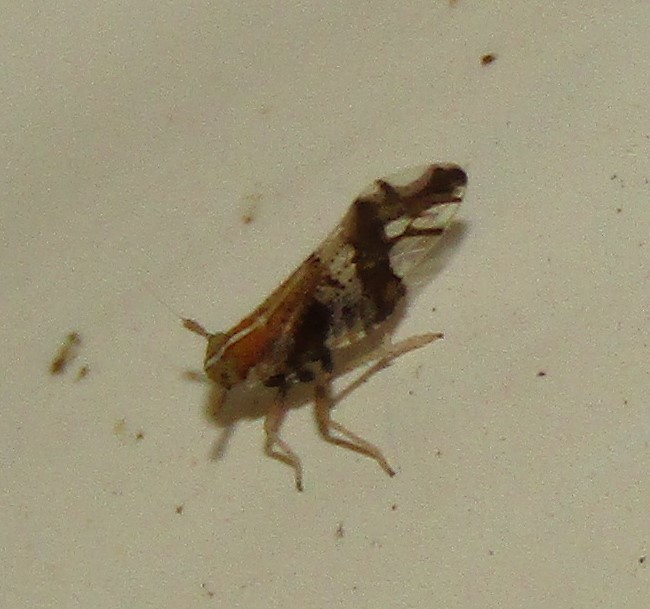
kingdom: Animalia
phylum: Arthropoda
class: Insecta
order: Hemiptera
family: Delphacidae
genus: Liburniella
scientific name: Liburniella ornata
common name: Ornate planthopper
